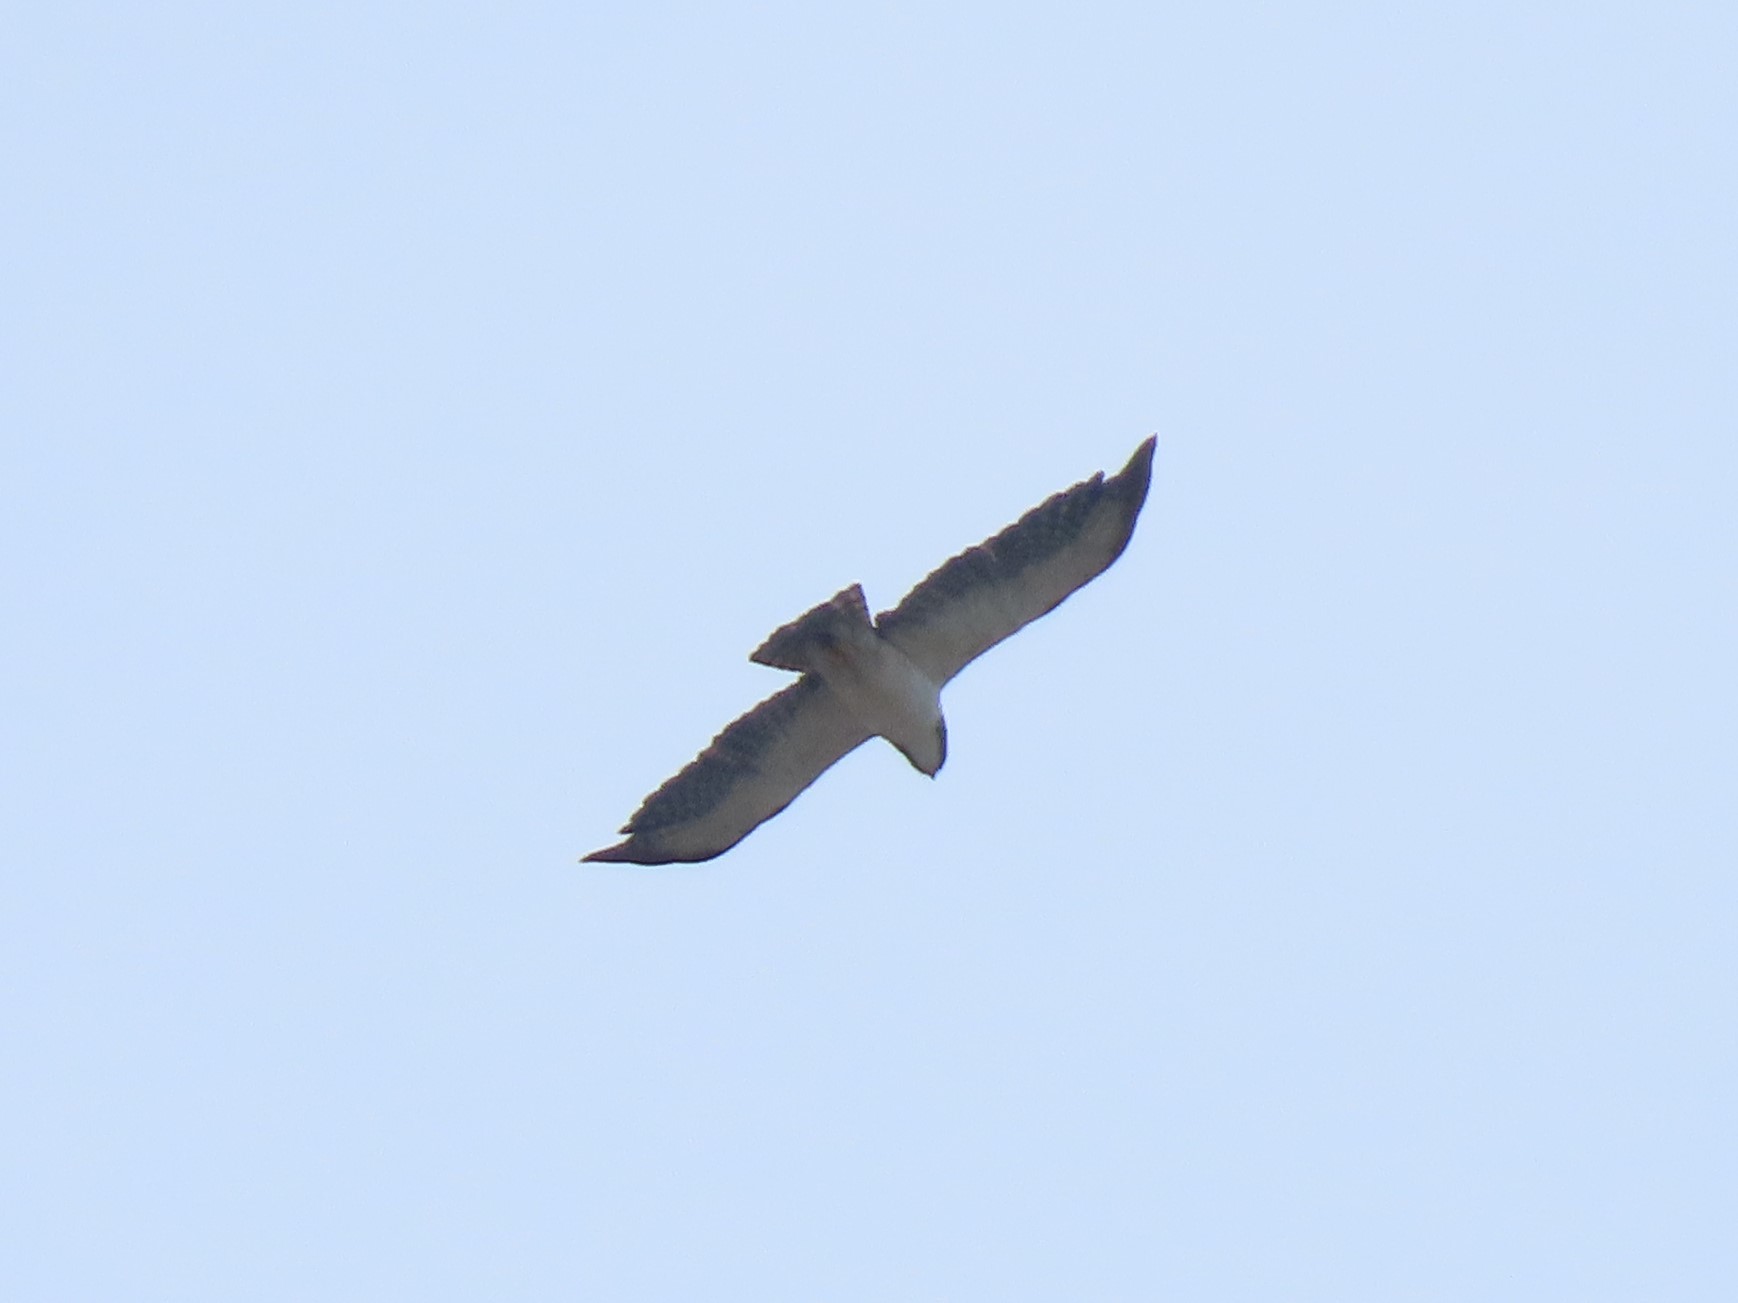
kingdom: Animalia
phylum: Chordata
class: Aves
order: Accipitriformes
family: Accipitridae
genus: Buteo
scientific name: Buteo brachyurus
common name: Short-tailed hawk
